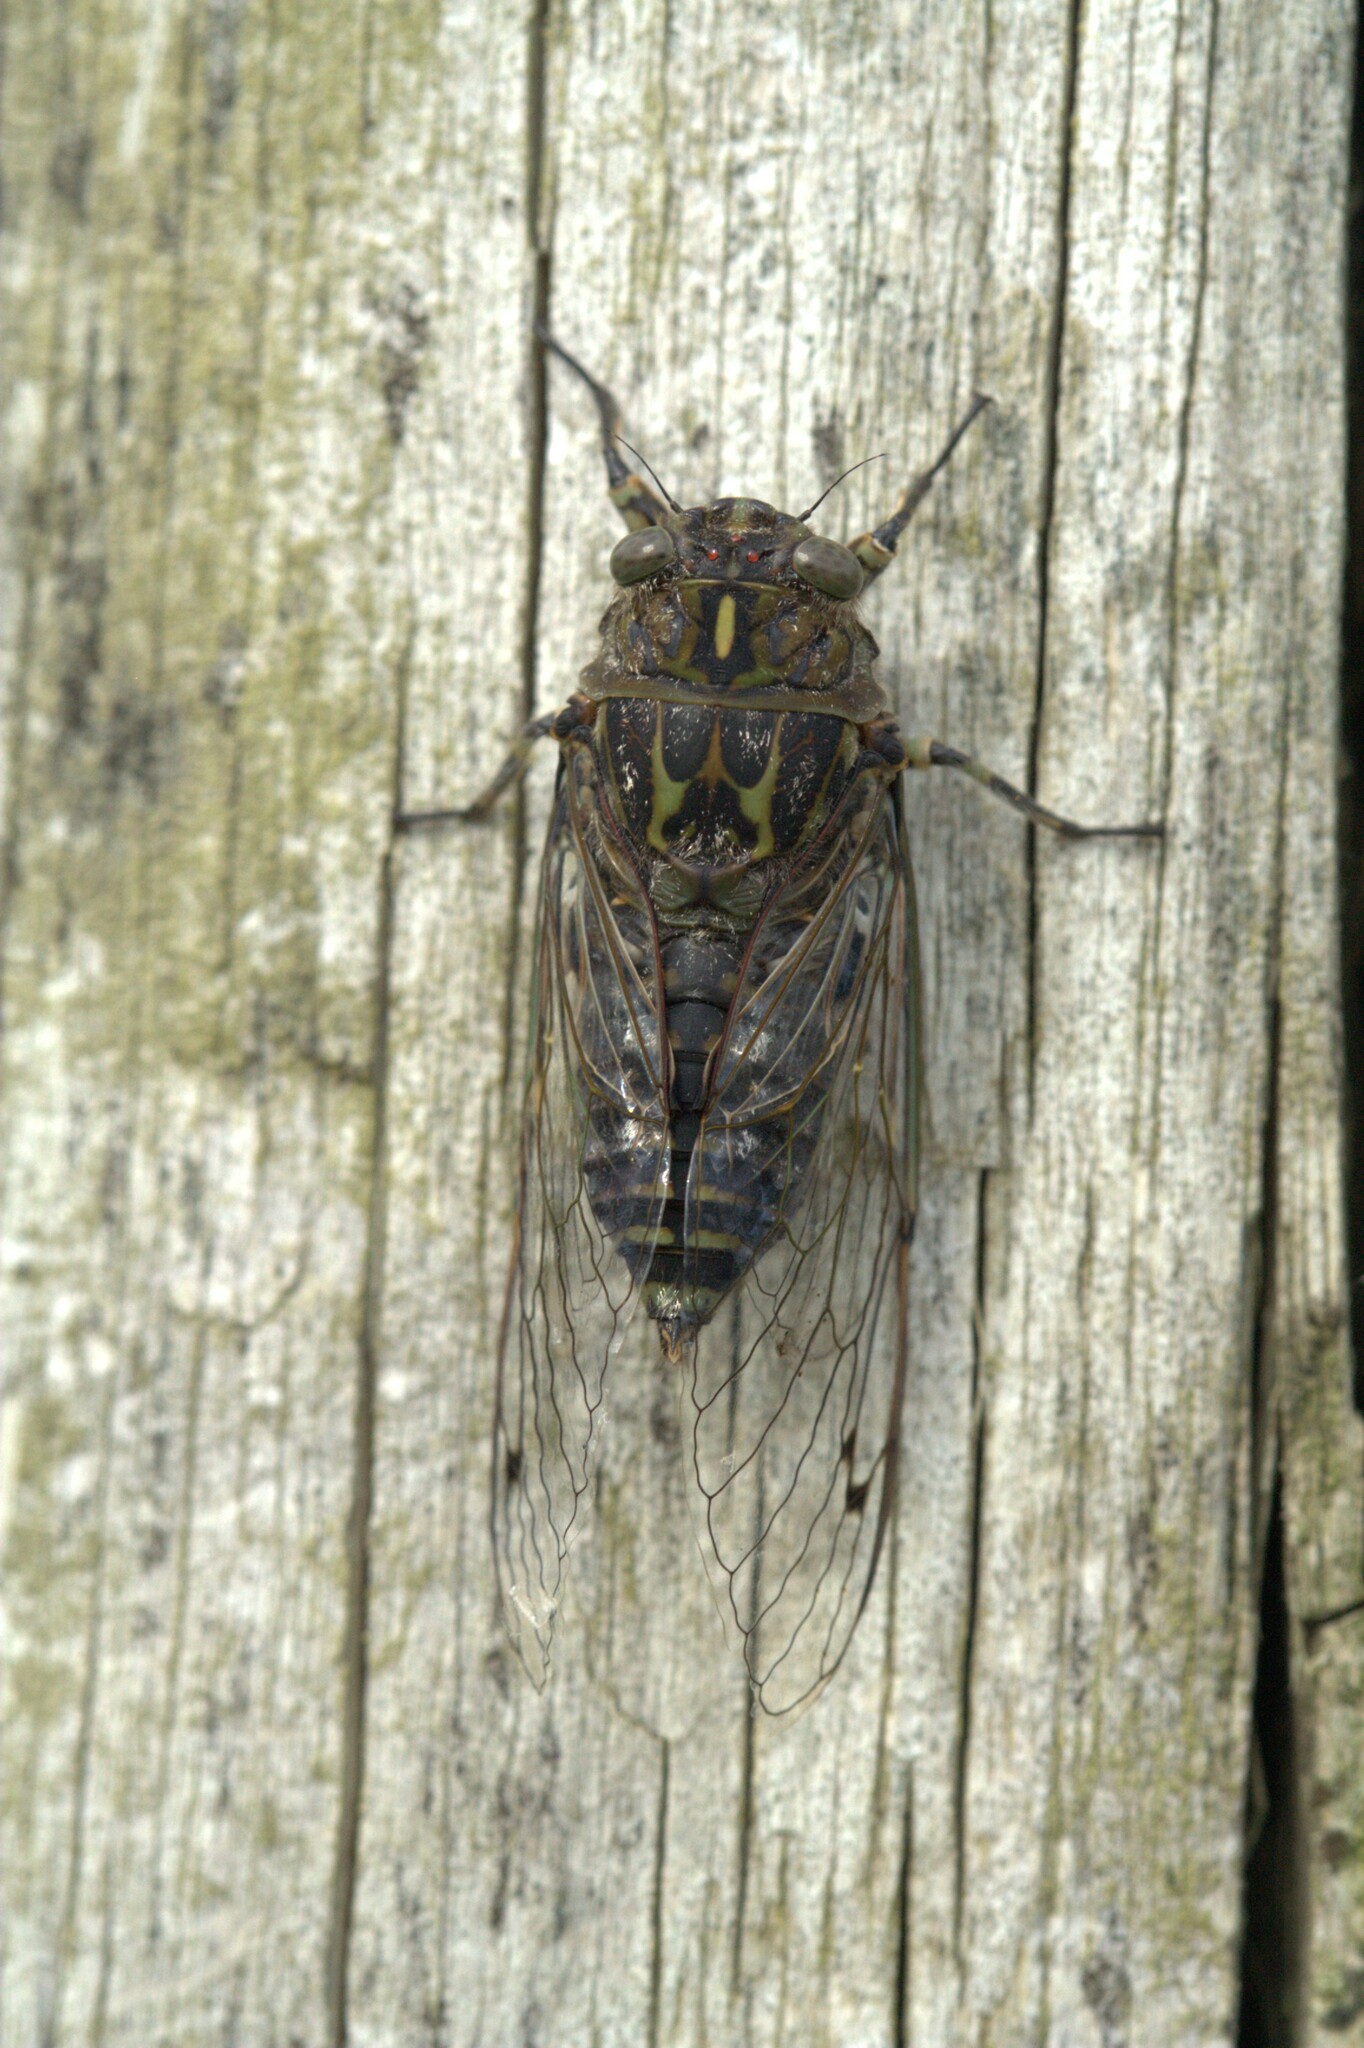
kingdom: Animalia
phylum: Arthropoda
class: Insecta
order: Hemiptera
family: Cicadidae
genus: Amphipsalta
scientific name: Amphipsalta cingulata
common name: Clapping cicada
